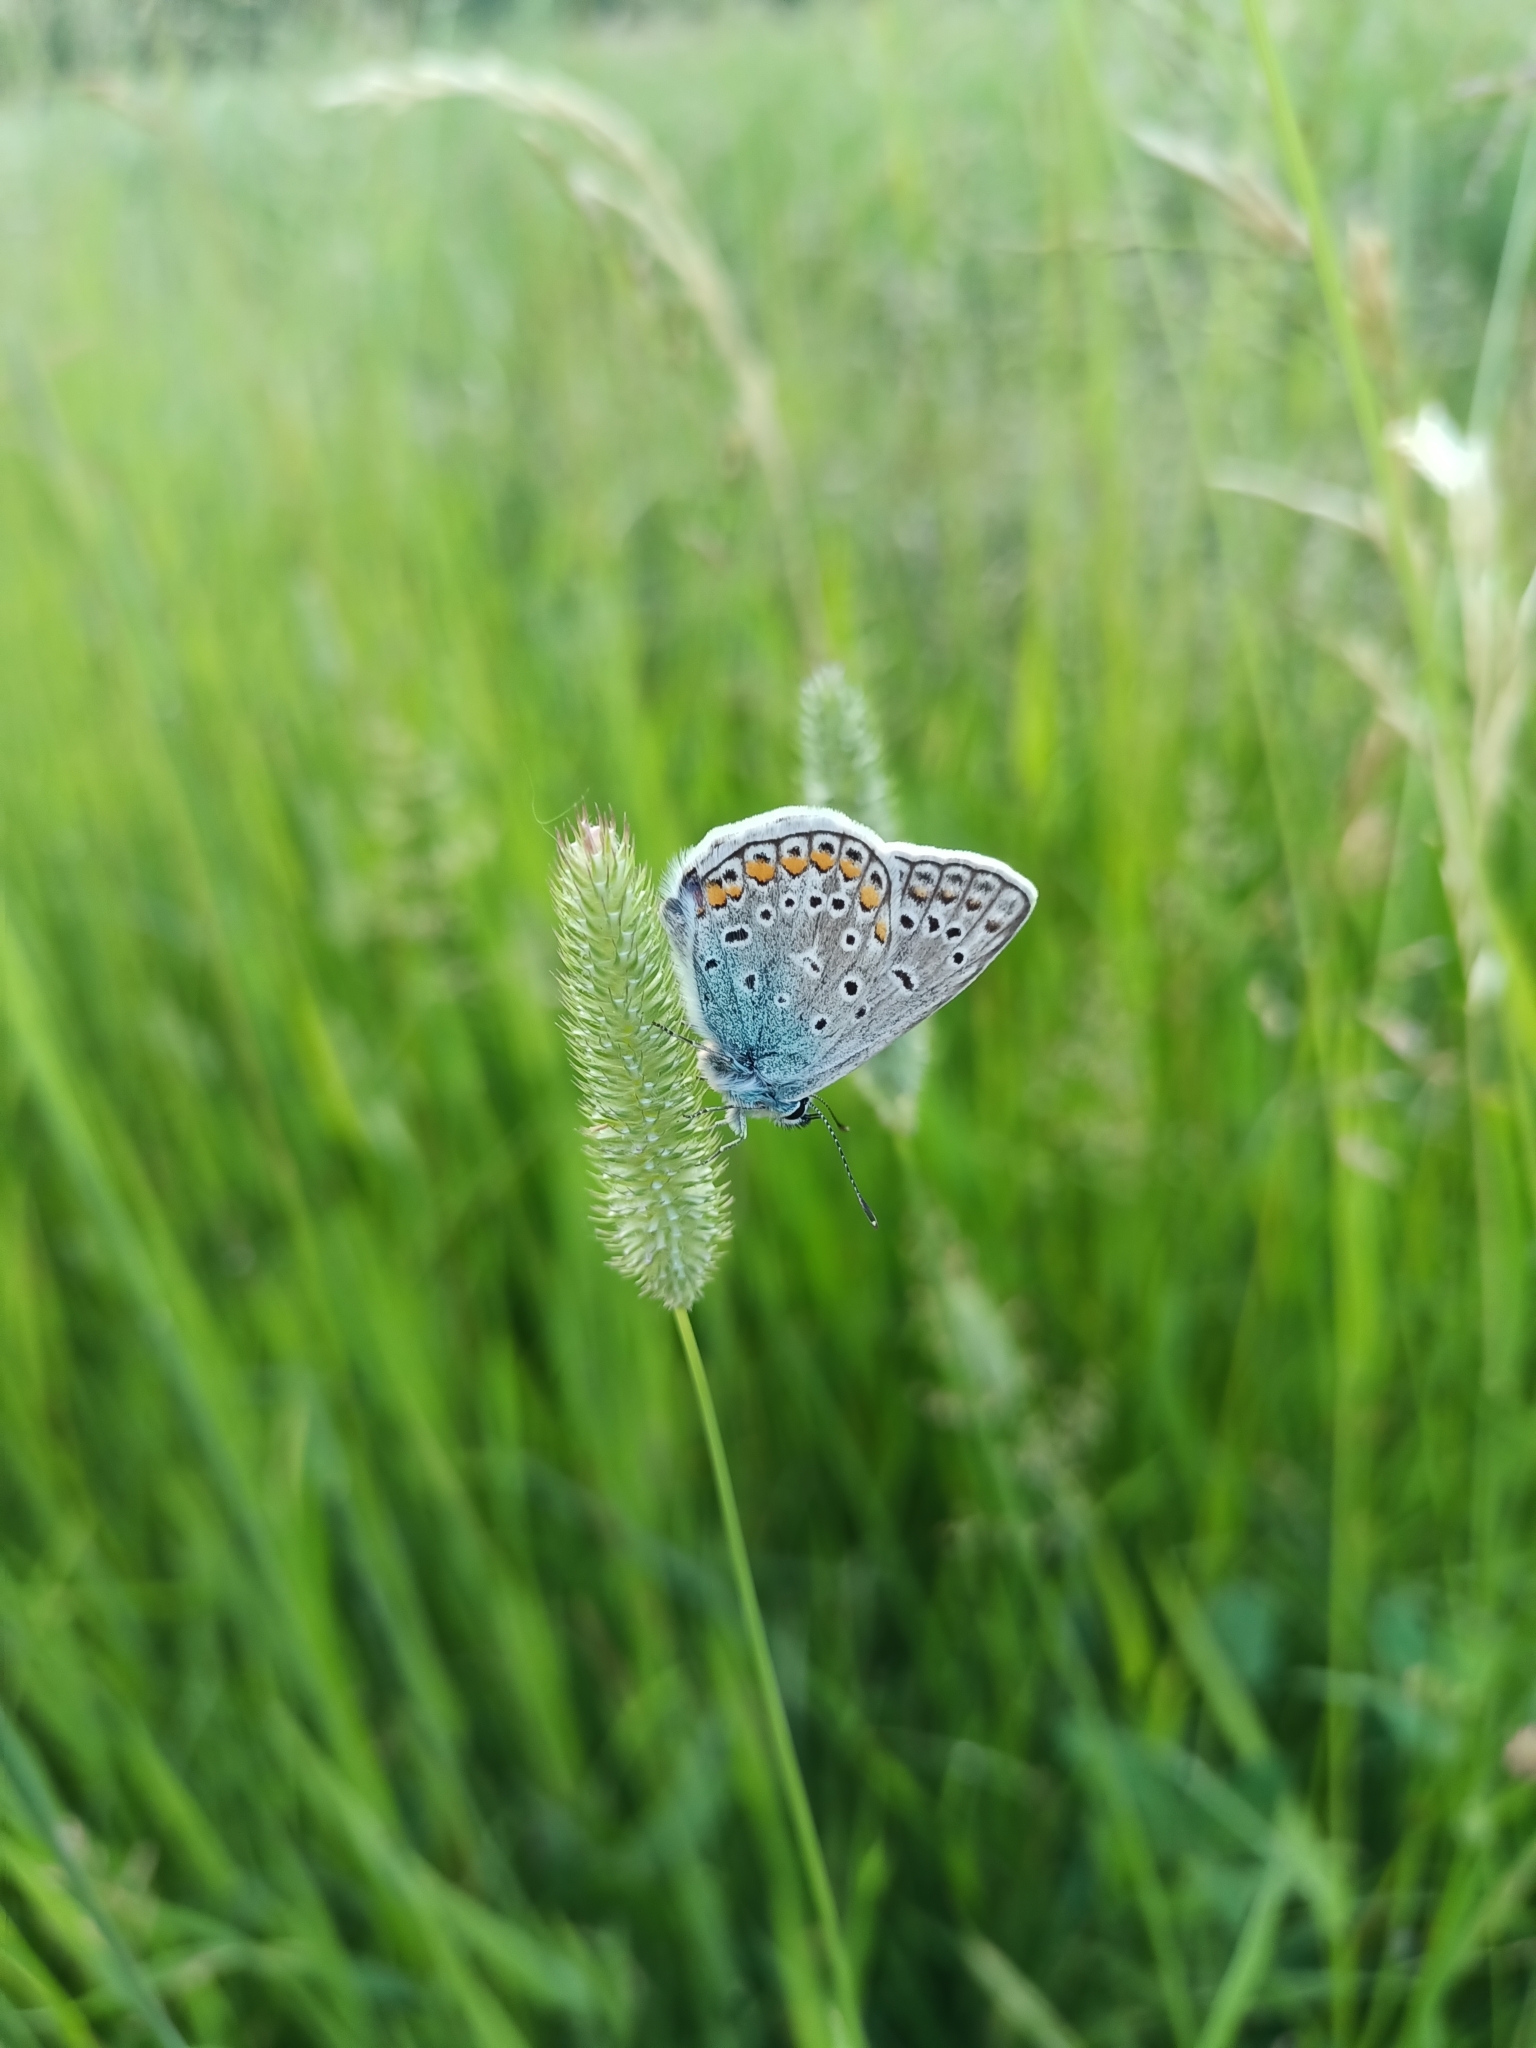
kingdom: Animalia
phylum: Arthropoda
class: Insecta
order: Lepidoptera
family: Lycaenidae
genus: Polyommatus
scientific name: Polyommatus icarus
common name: Common blue
